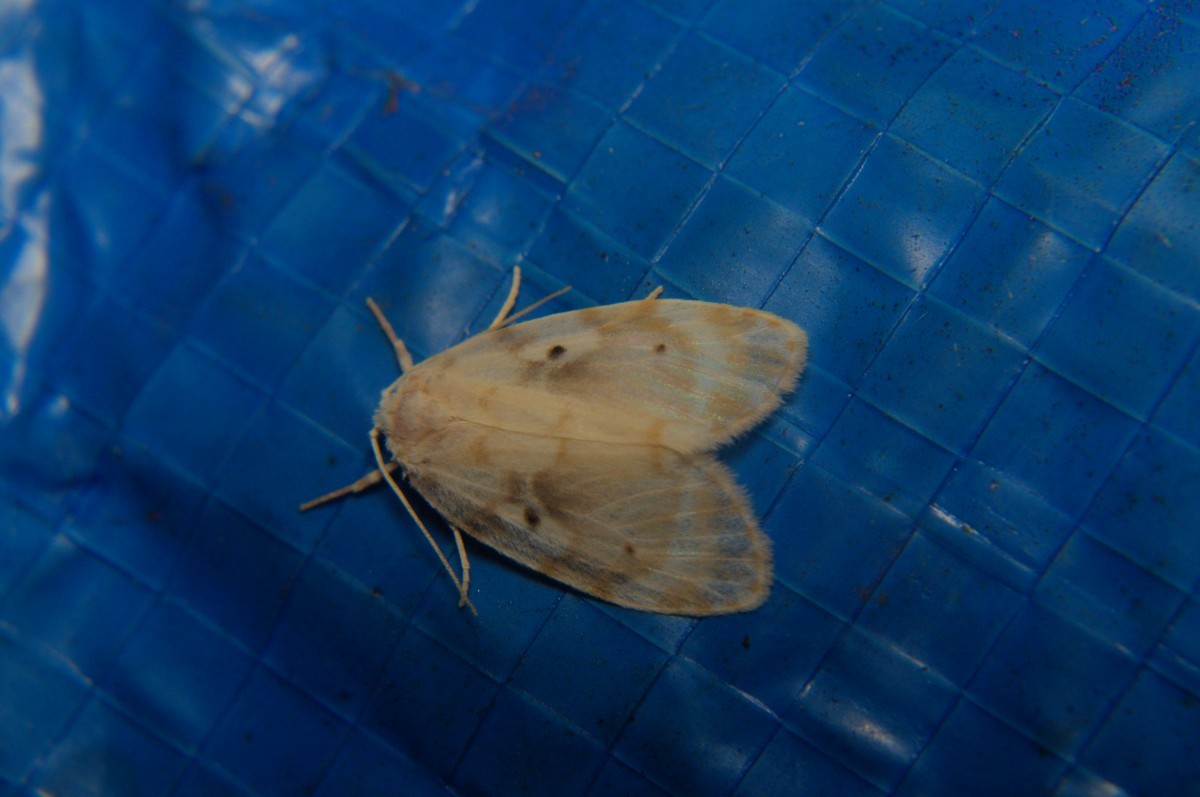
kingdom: Animalia
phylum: Arthropoda
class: Insecta
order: Lepidoptera
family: Erebidae
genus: Schistophleps
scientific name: Schistophleps bipuncta
